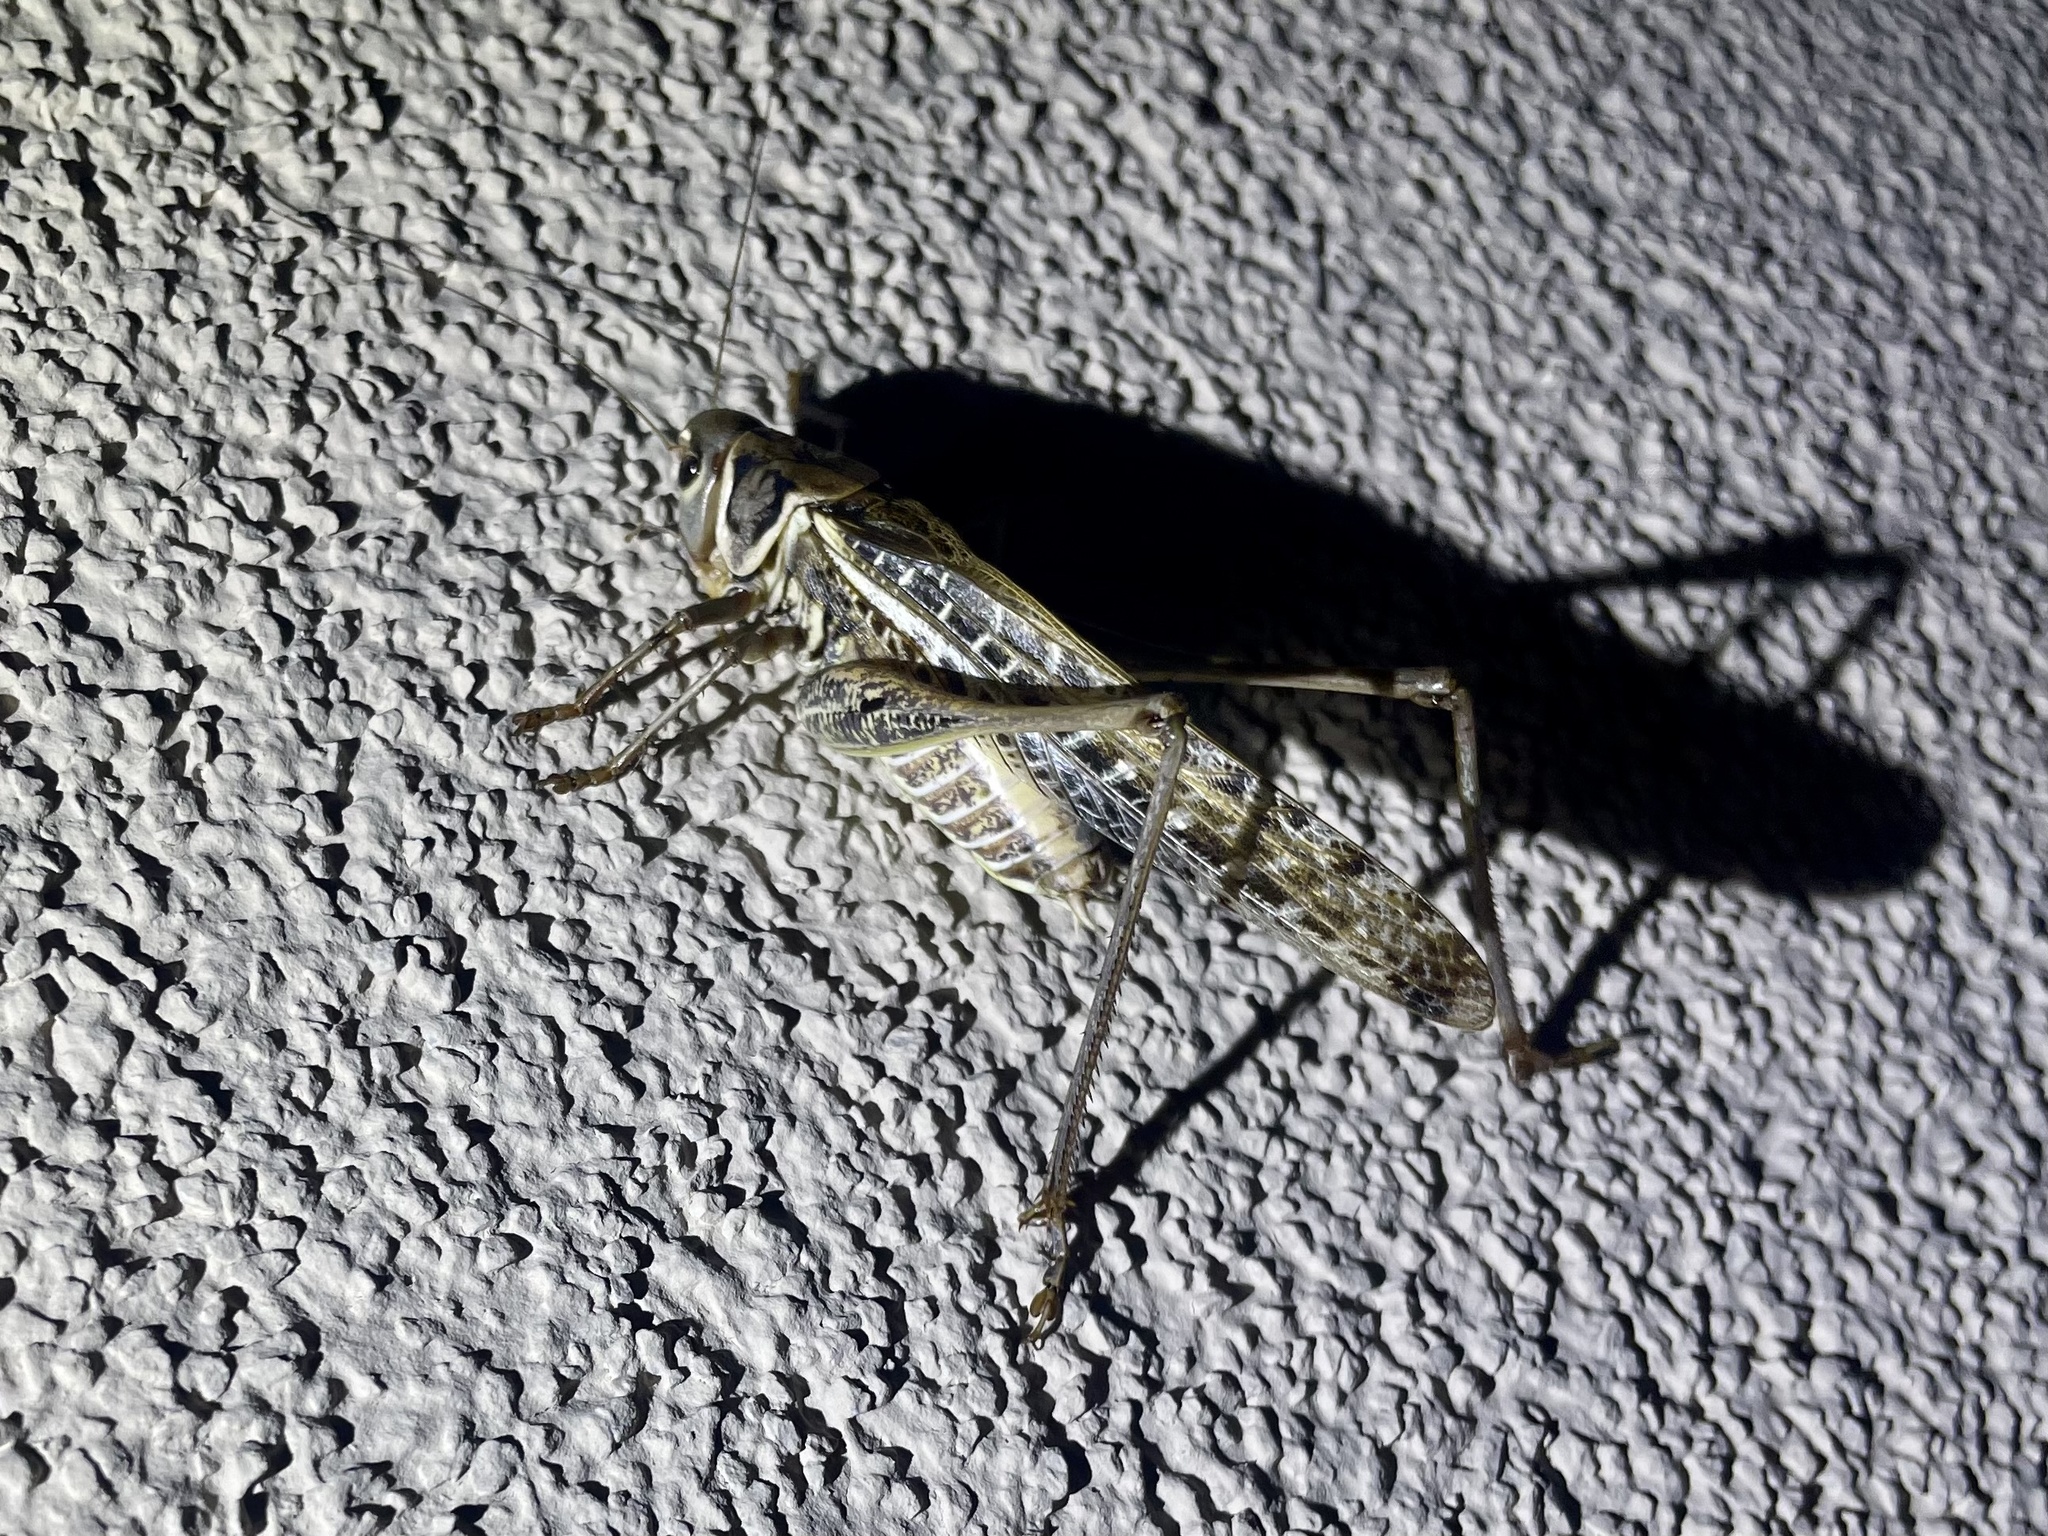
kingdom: Animalia
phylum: Arthropoda
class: Insecta
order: Orthoptera
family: Tettigoniidae
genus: Decticus
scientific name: Decticus albifrons
